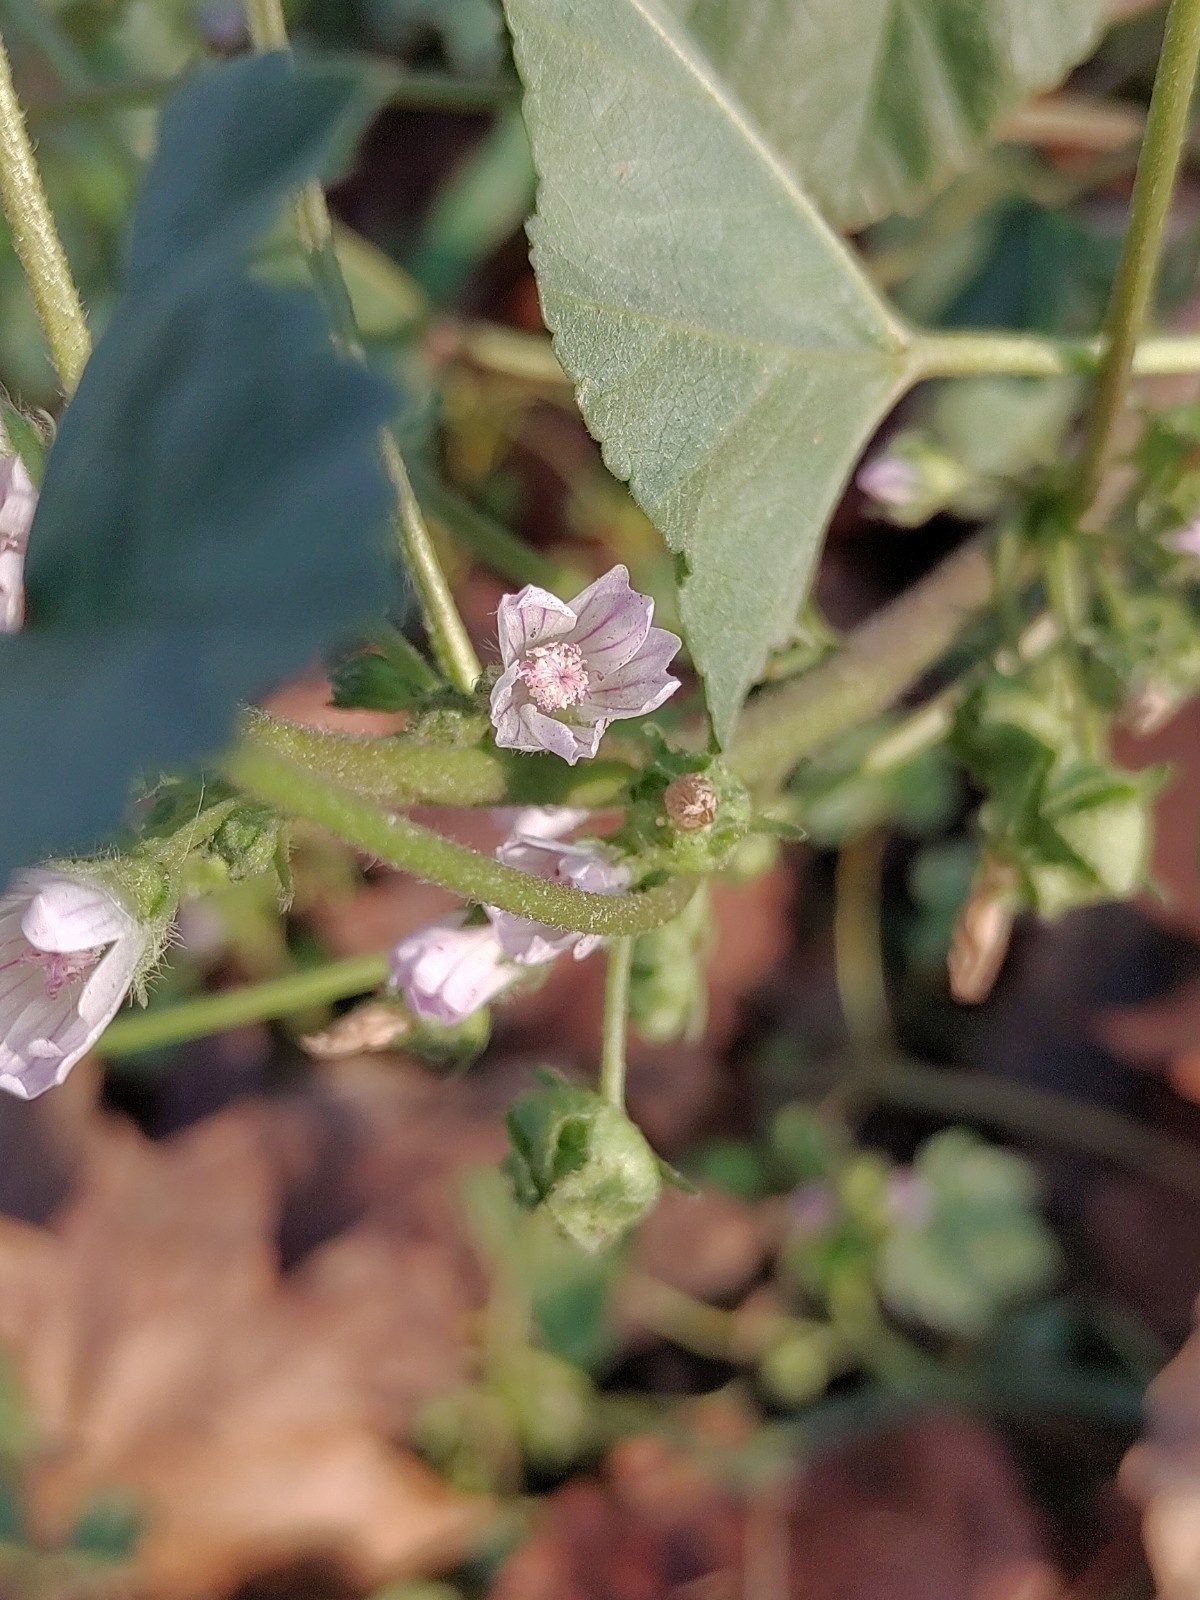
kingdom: Plantae
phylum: Tracheophyta
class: Magnoliopsida
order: Malvales
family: Malvaceae
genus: Malva
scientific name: Malva neglecta
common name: Common mallow
